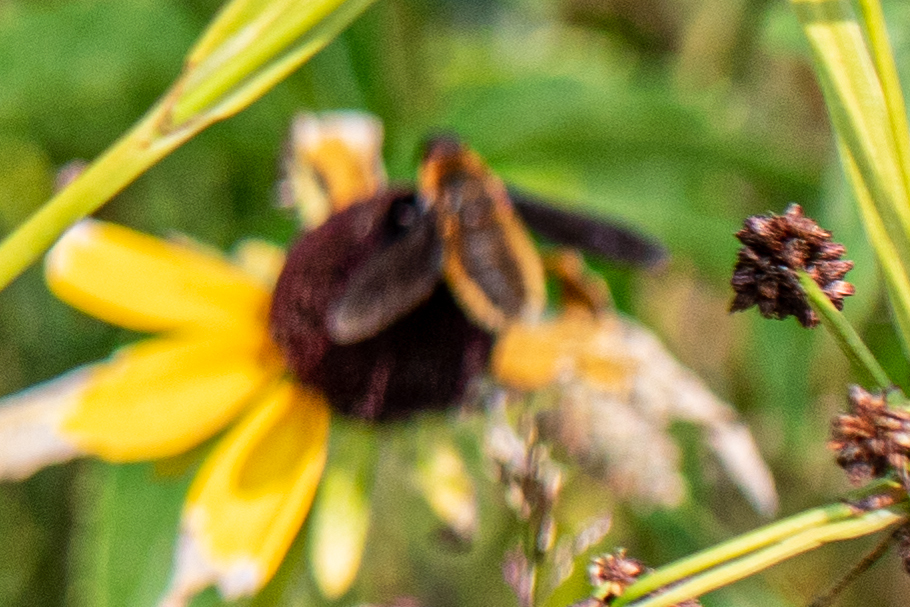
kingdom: Animalia
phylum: Arthropoda
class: Insecta
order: Diptera
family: Bombyliidae
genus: Poecilanthrax
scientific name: Poecilanthrax tegminipennis
